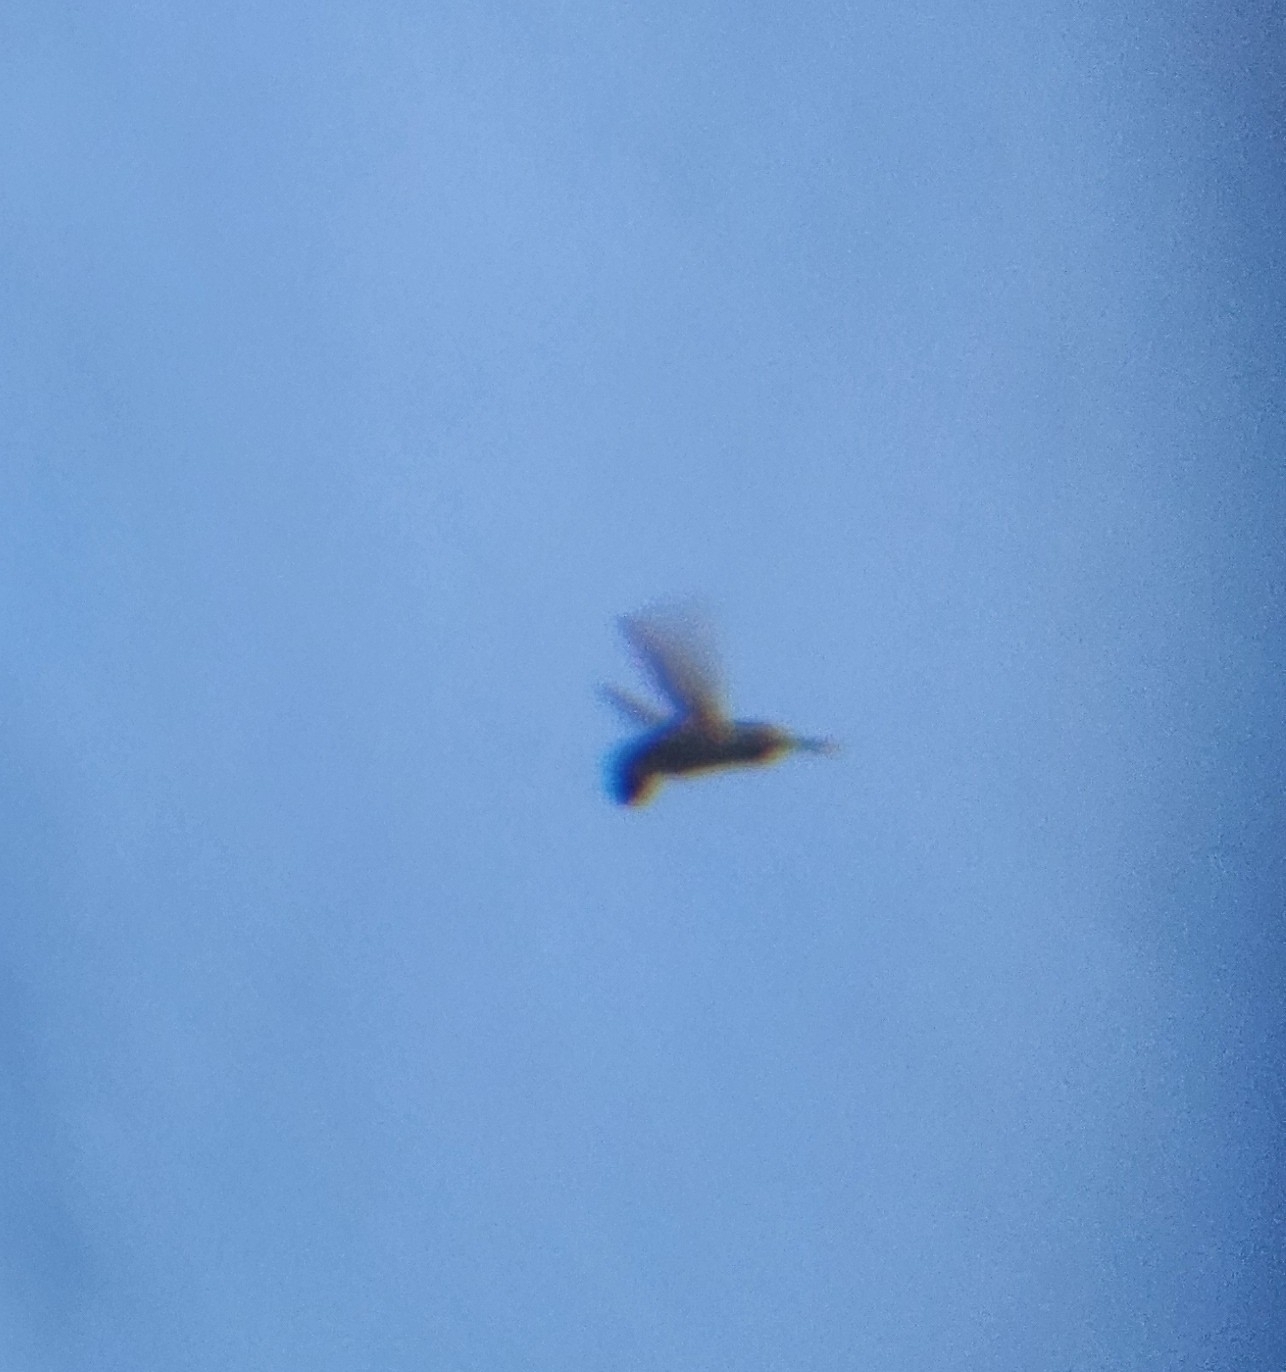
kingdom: Animalia
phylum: Chordata
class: Aves
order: Apodiformes
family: Trochilidae
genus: Calypte
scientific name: Calypte anna
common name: Anna's hummingbird
